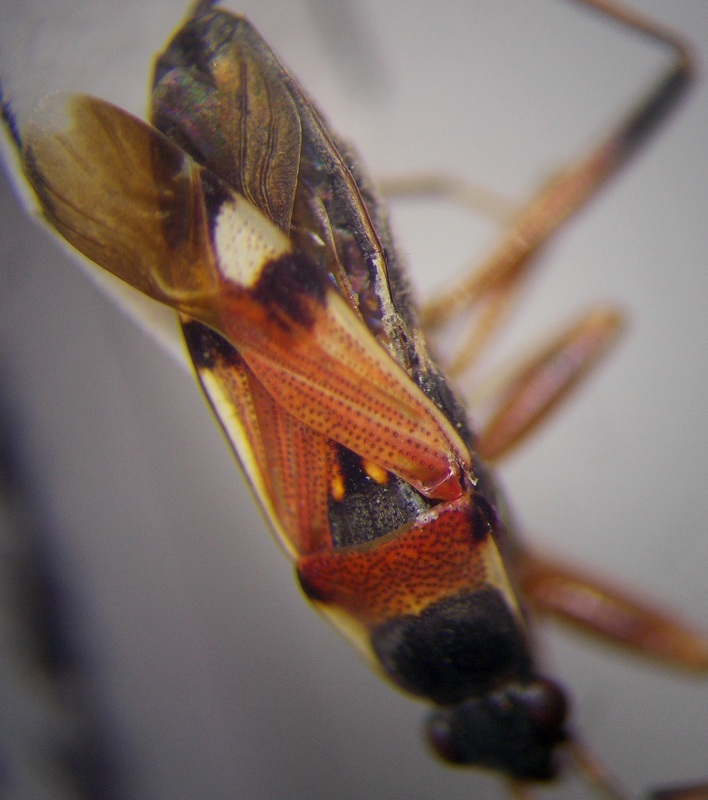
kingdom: Animalia
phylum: Arthropoda
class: Insecta
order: Hemiptera
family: Rhyparochromidae
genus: Beosus
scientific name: Beosus quadripunctatus
